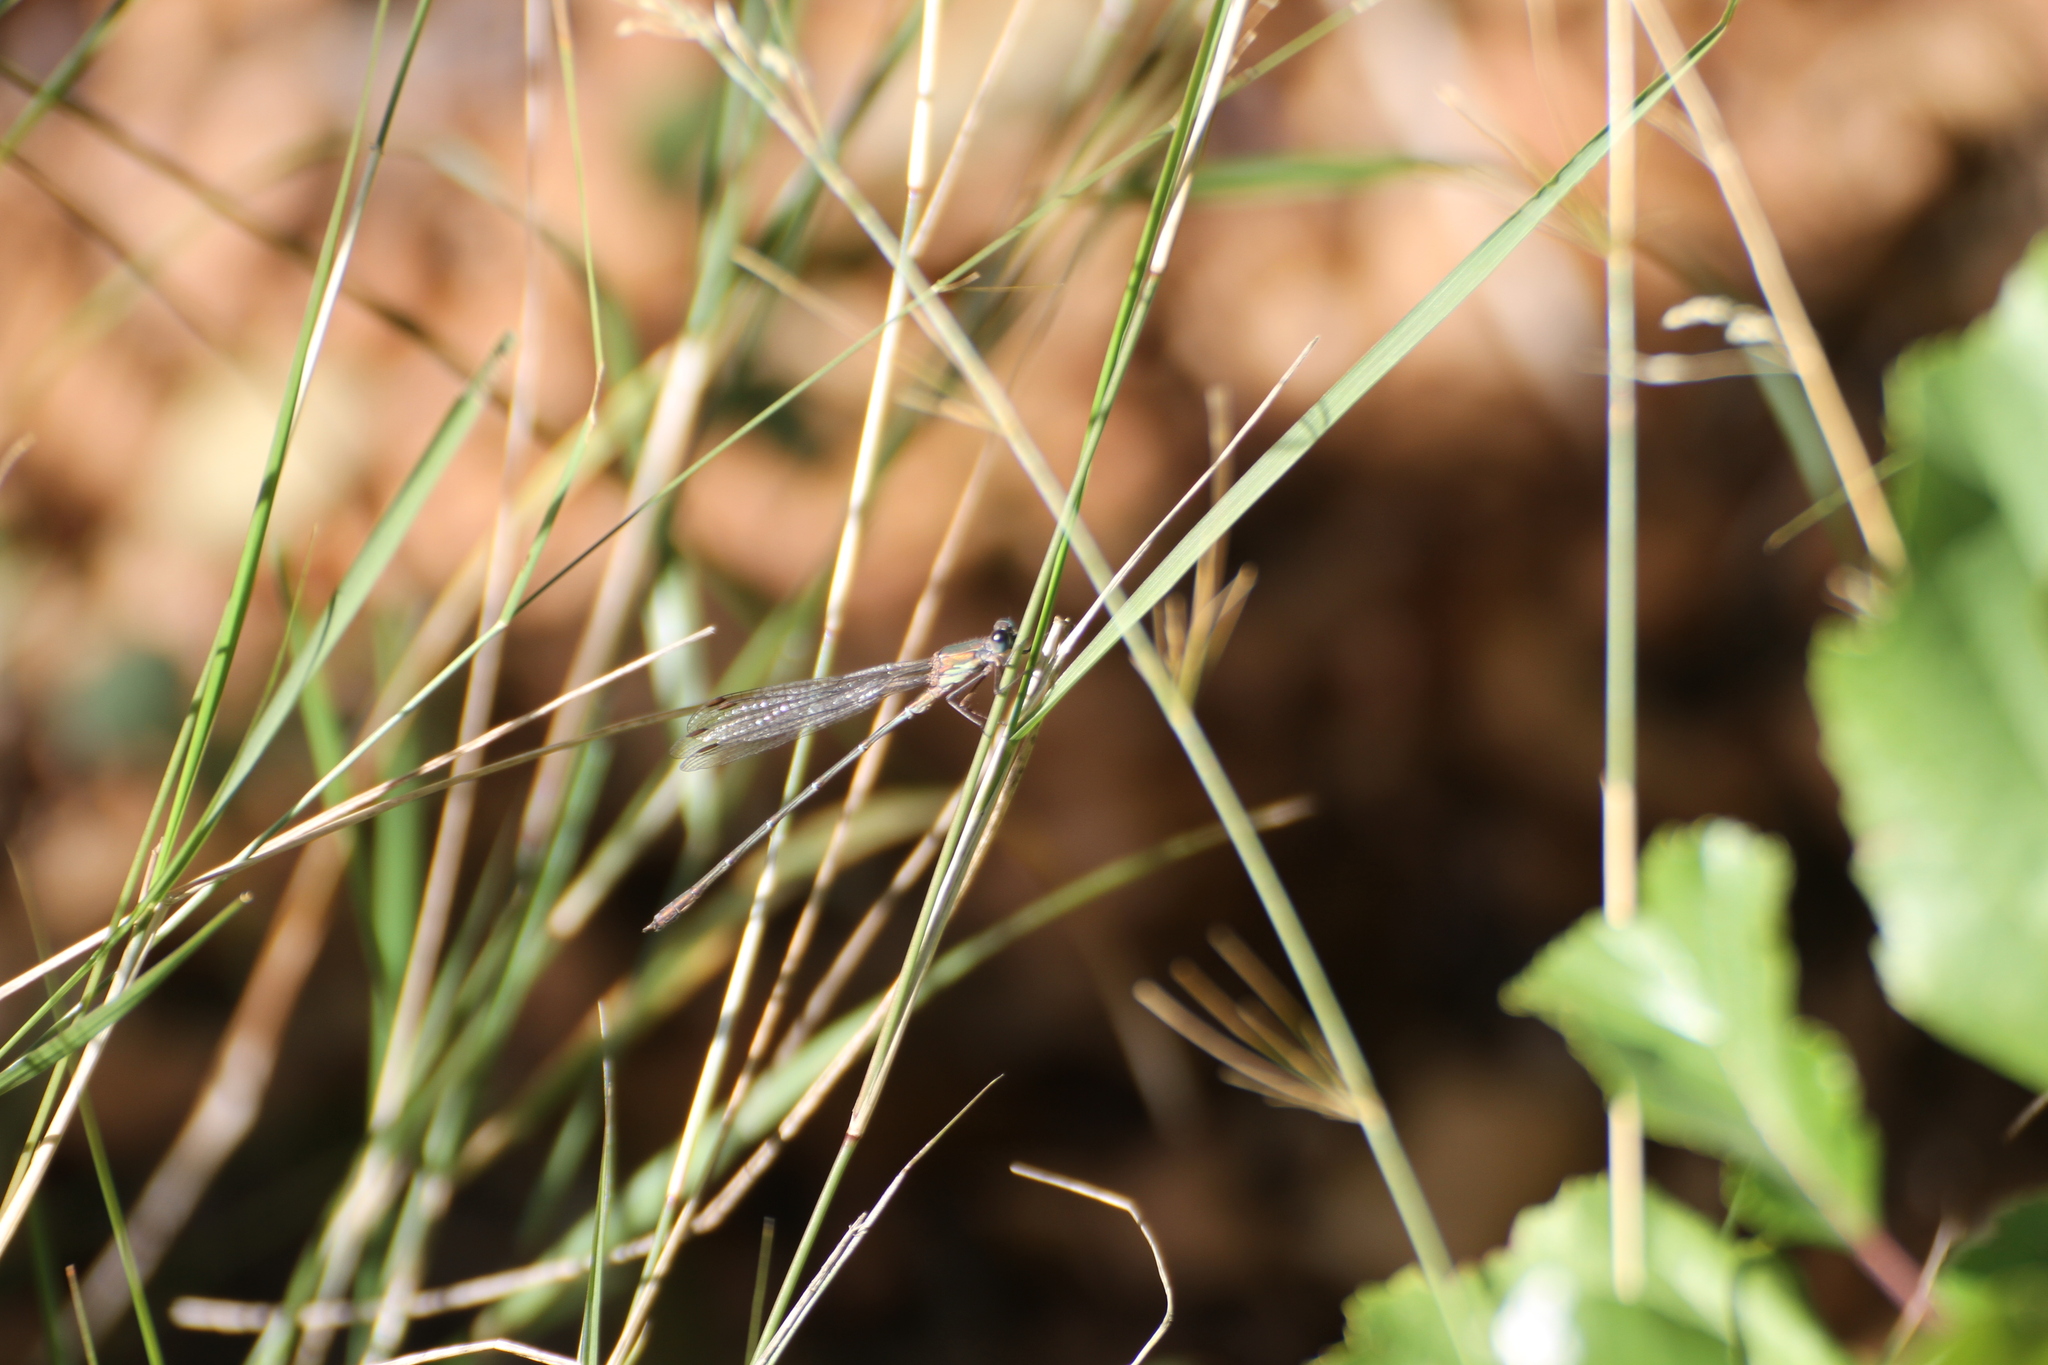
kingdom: Animalia
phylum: Arthropoda
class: Insecta
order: Odonata
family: Lestidae
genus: Chalcolestes
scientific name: Chalcolestes viridis
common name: Green emerald damselfly
